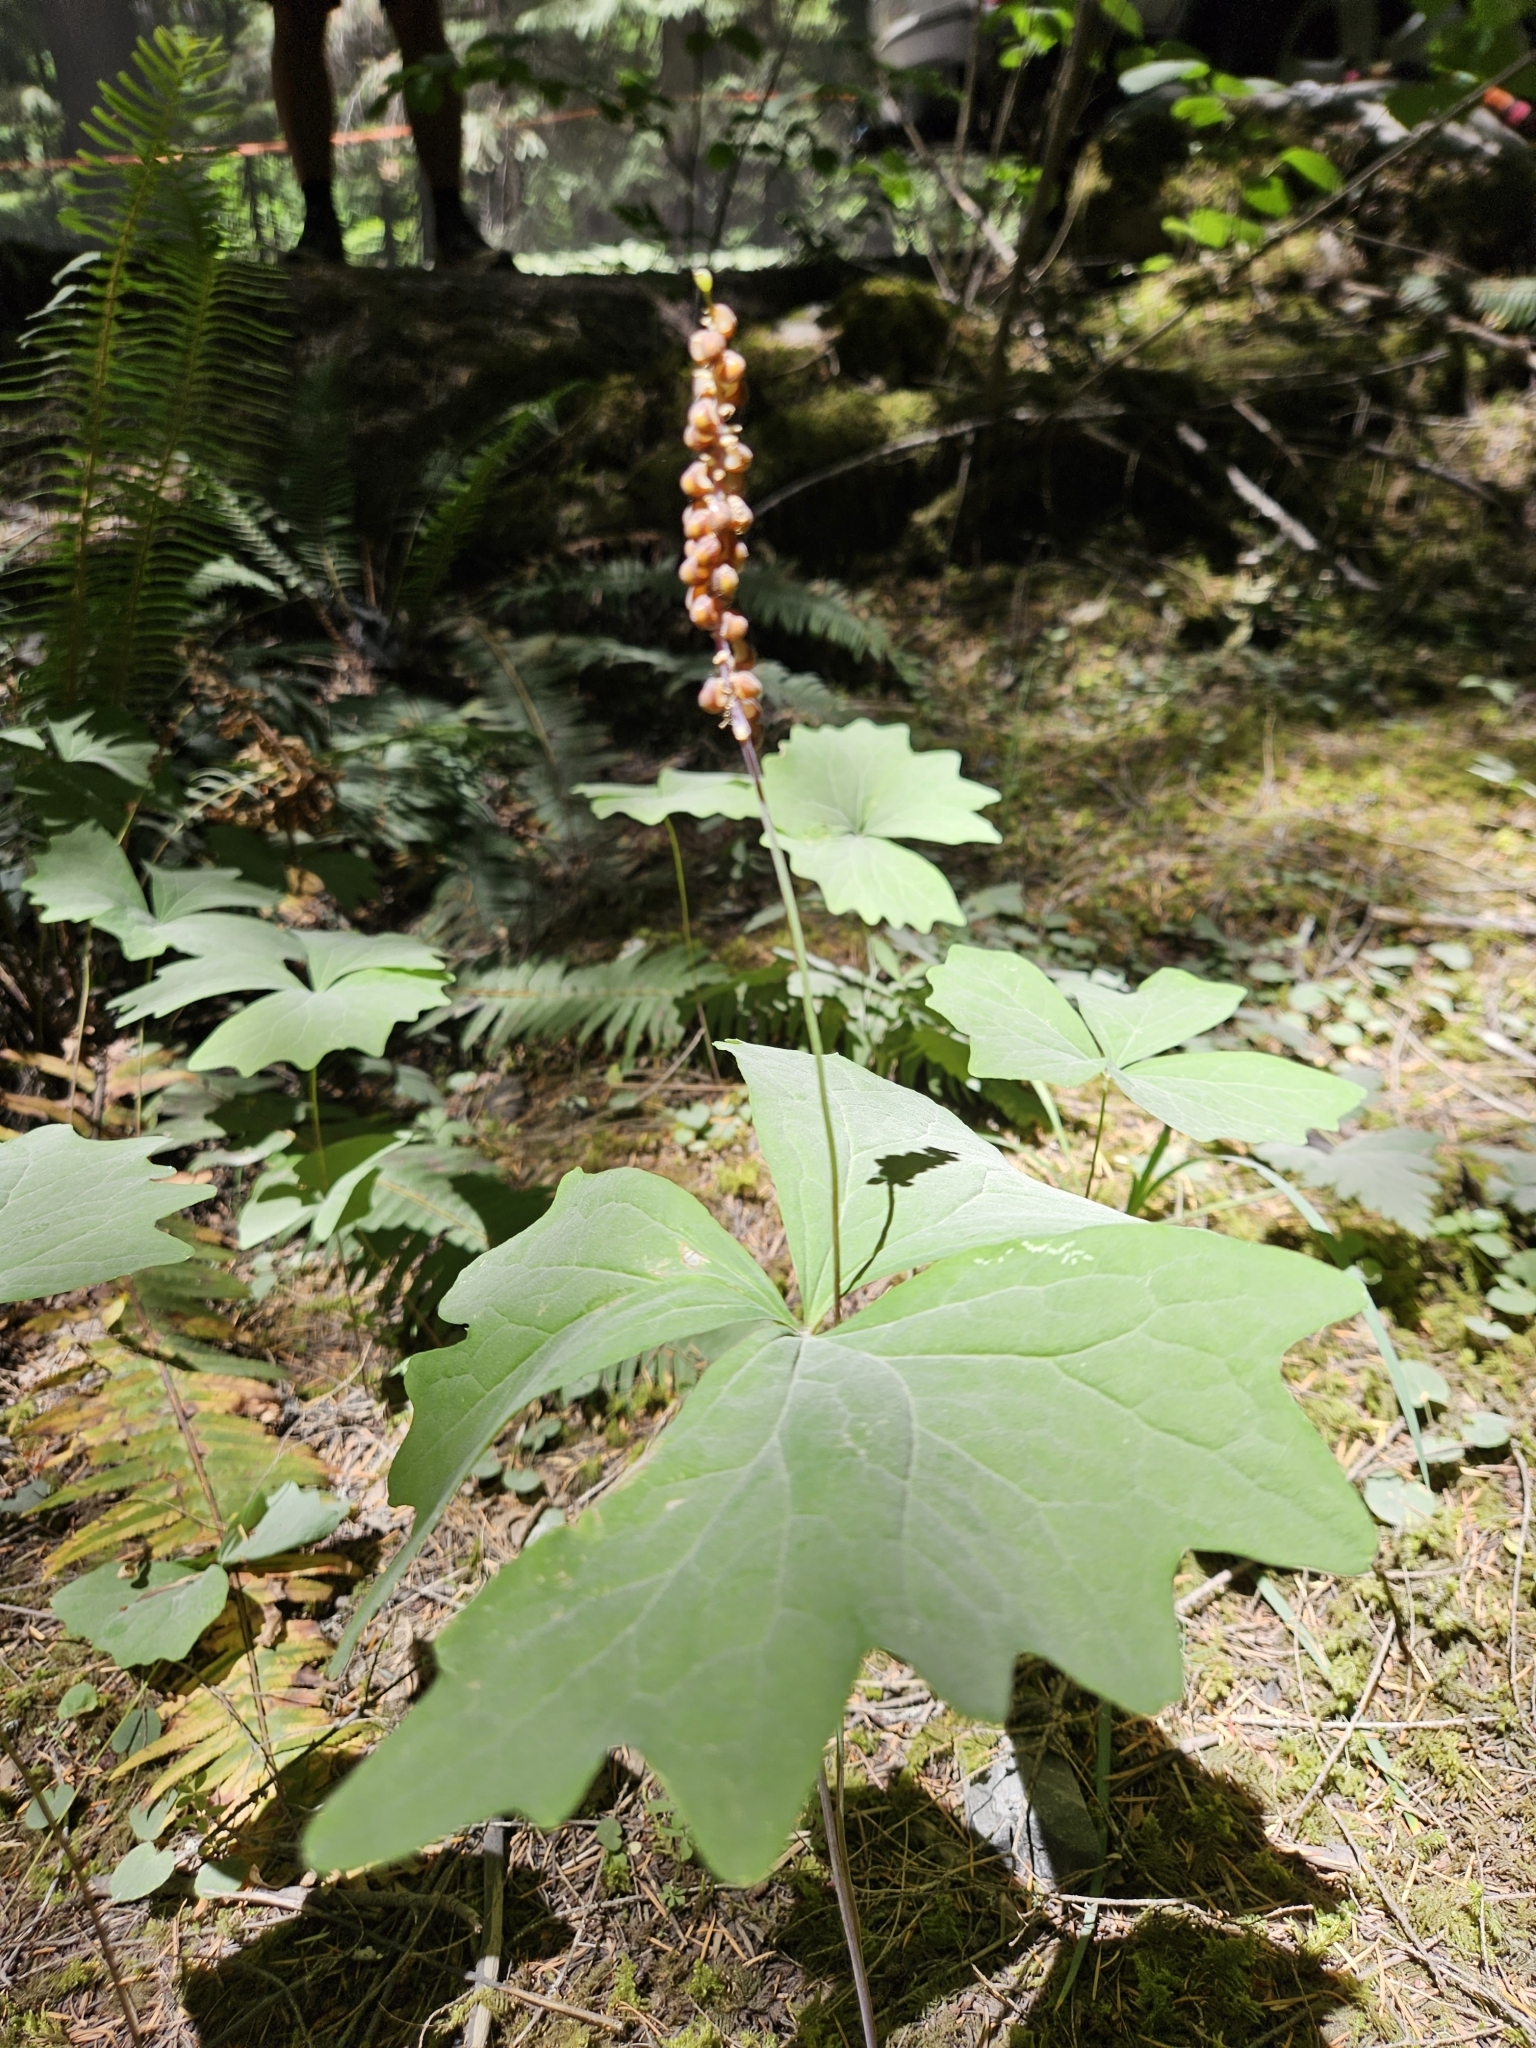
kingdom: Plantae
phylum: Tracheophyta
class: Magnoliopsida
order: Ericales
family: Ericaceae
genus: Allotropa
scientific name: Allotropa virgata
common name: Candy-striped allotropa
